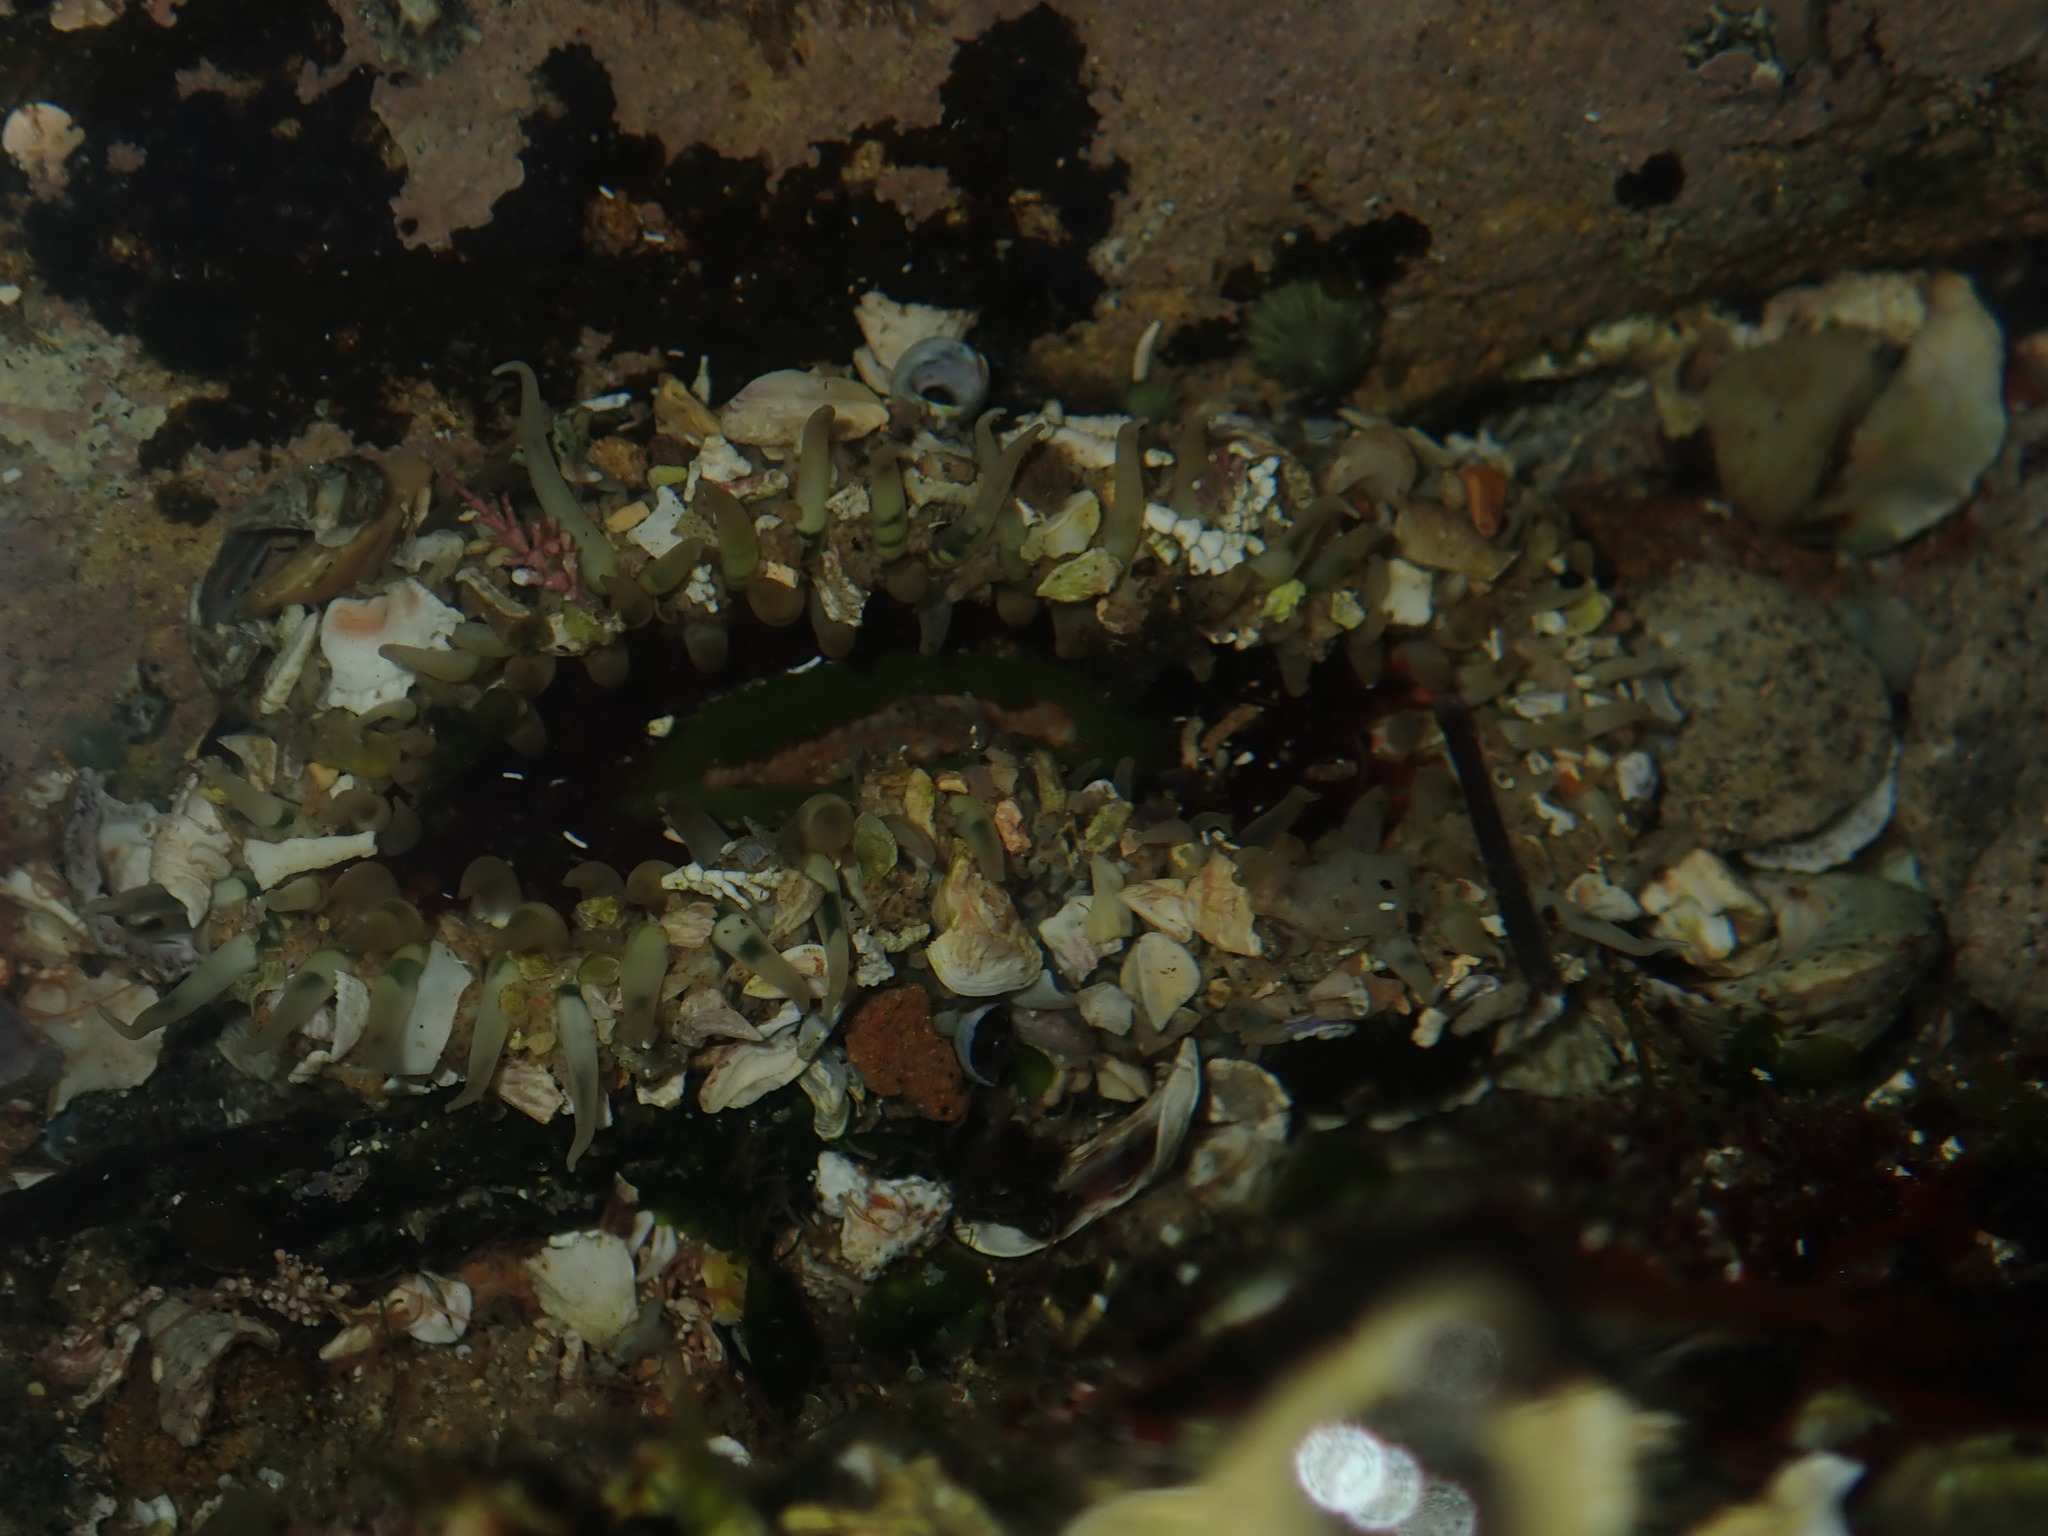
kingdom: Animalia
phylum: Cnidaria
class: Anthozoa
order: Actiniaria
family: Actiniidae
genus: Oulactis
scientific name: Oulactis muscosa
